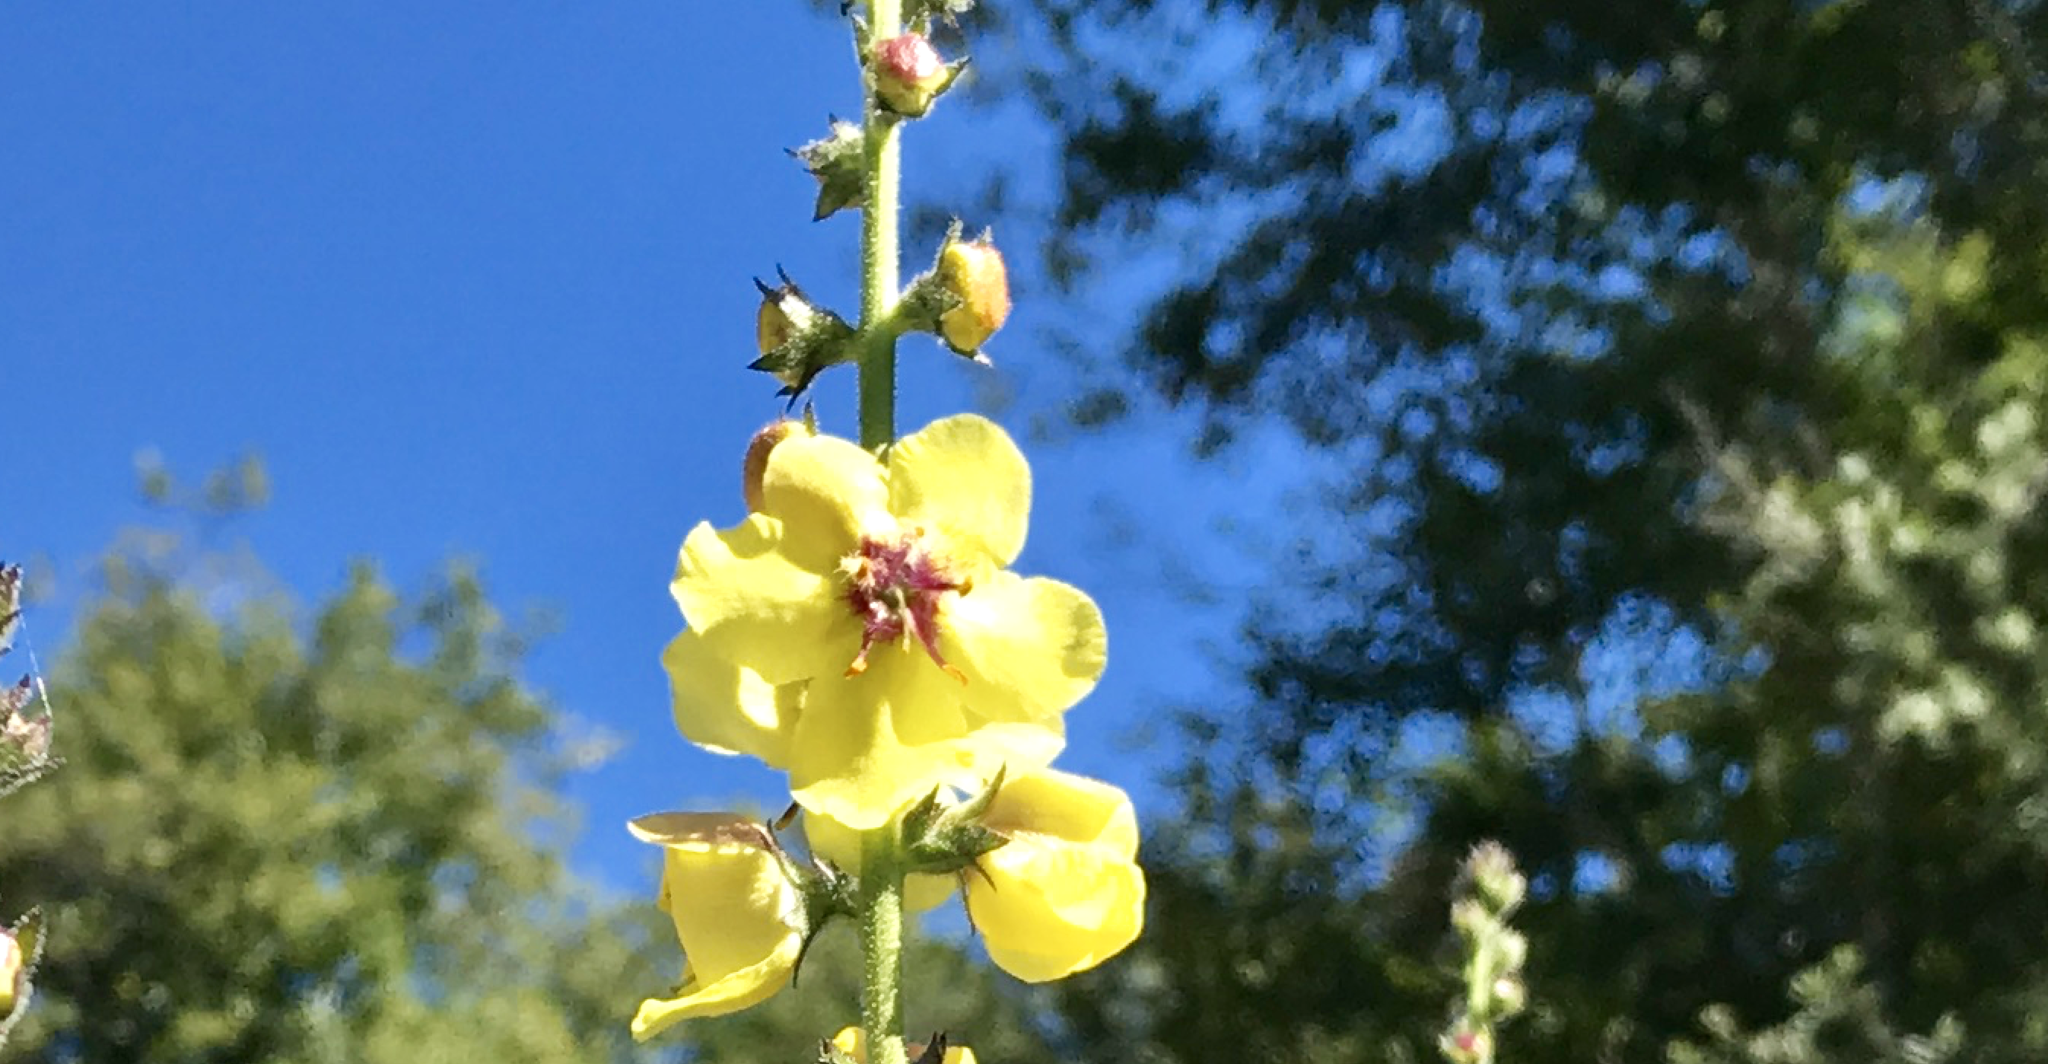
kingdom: Plantae
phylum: Tracheophyta
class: Magnoliopsida
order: Lamiales
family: Scrophulariaceae
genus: Verbascum
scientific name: Verbascum virgatum
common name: Twiggy mullein
